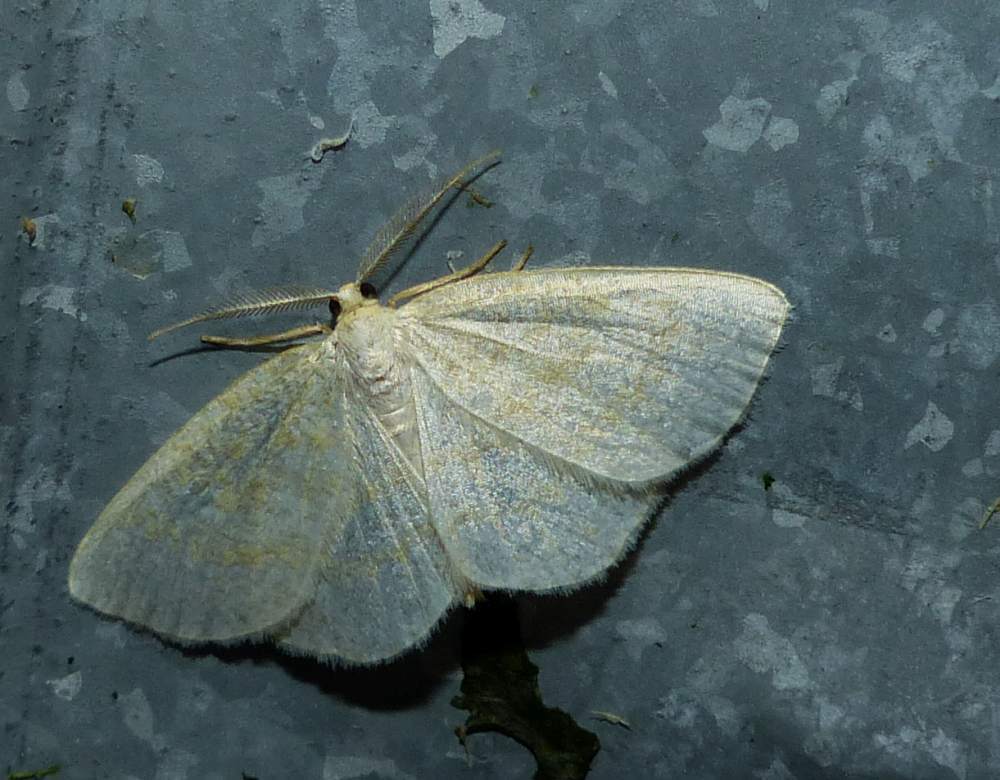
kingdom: Animalia
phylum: Arthropoda
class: Insecta
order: Lepidoptera
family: Geometridae
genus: Cabera
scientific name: Cabera erythemaria
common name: Yellow-dusted cream moth
